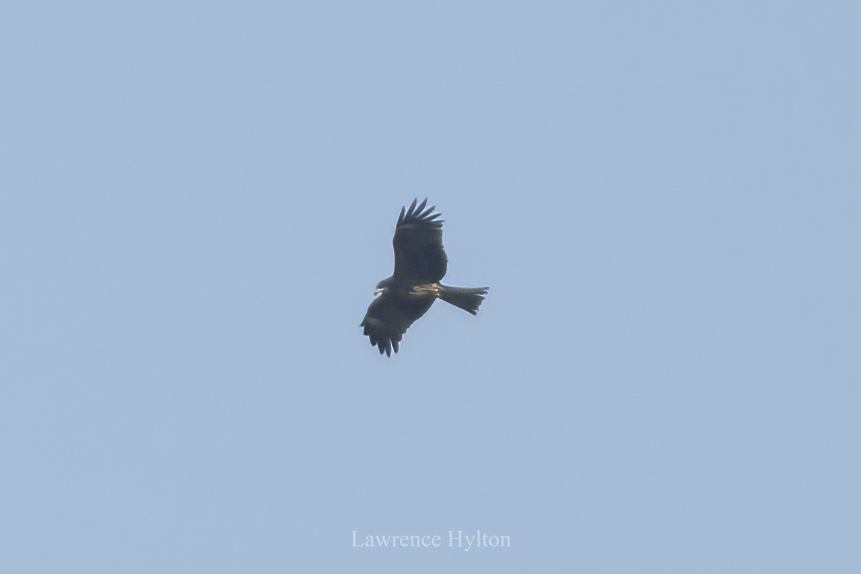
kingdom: Animalia
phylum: Chordata
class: Aves
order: Accipitriformes
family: Accipitridae
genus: Milvus
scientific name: Milvus migrans
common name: Black kite
